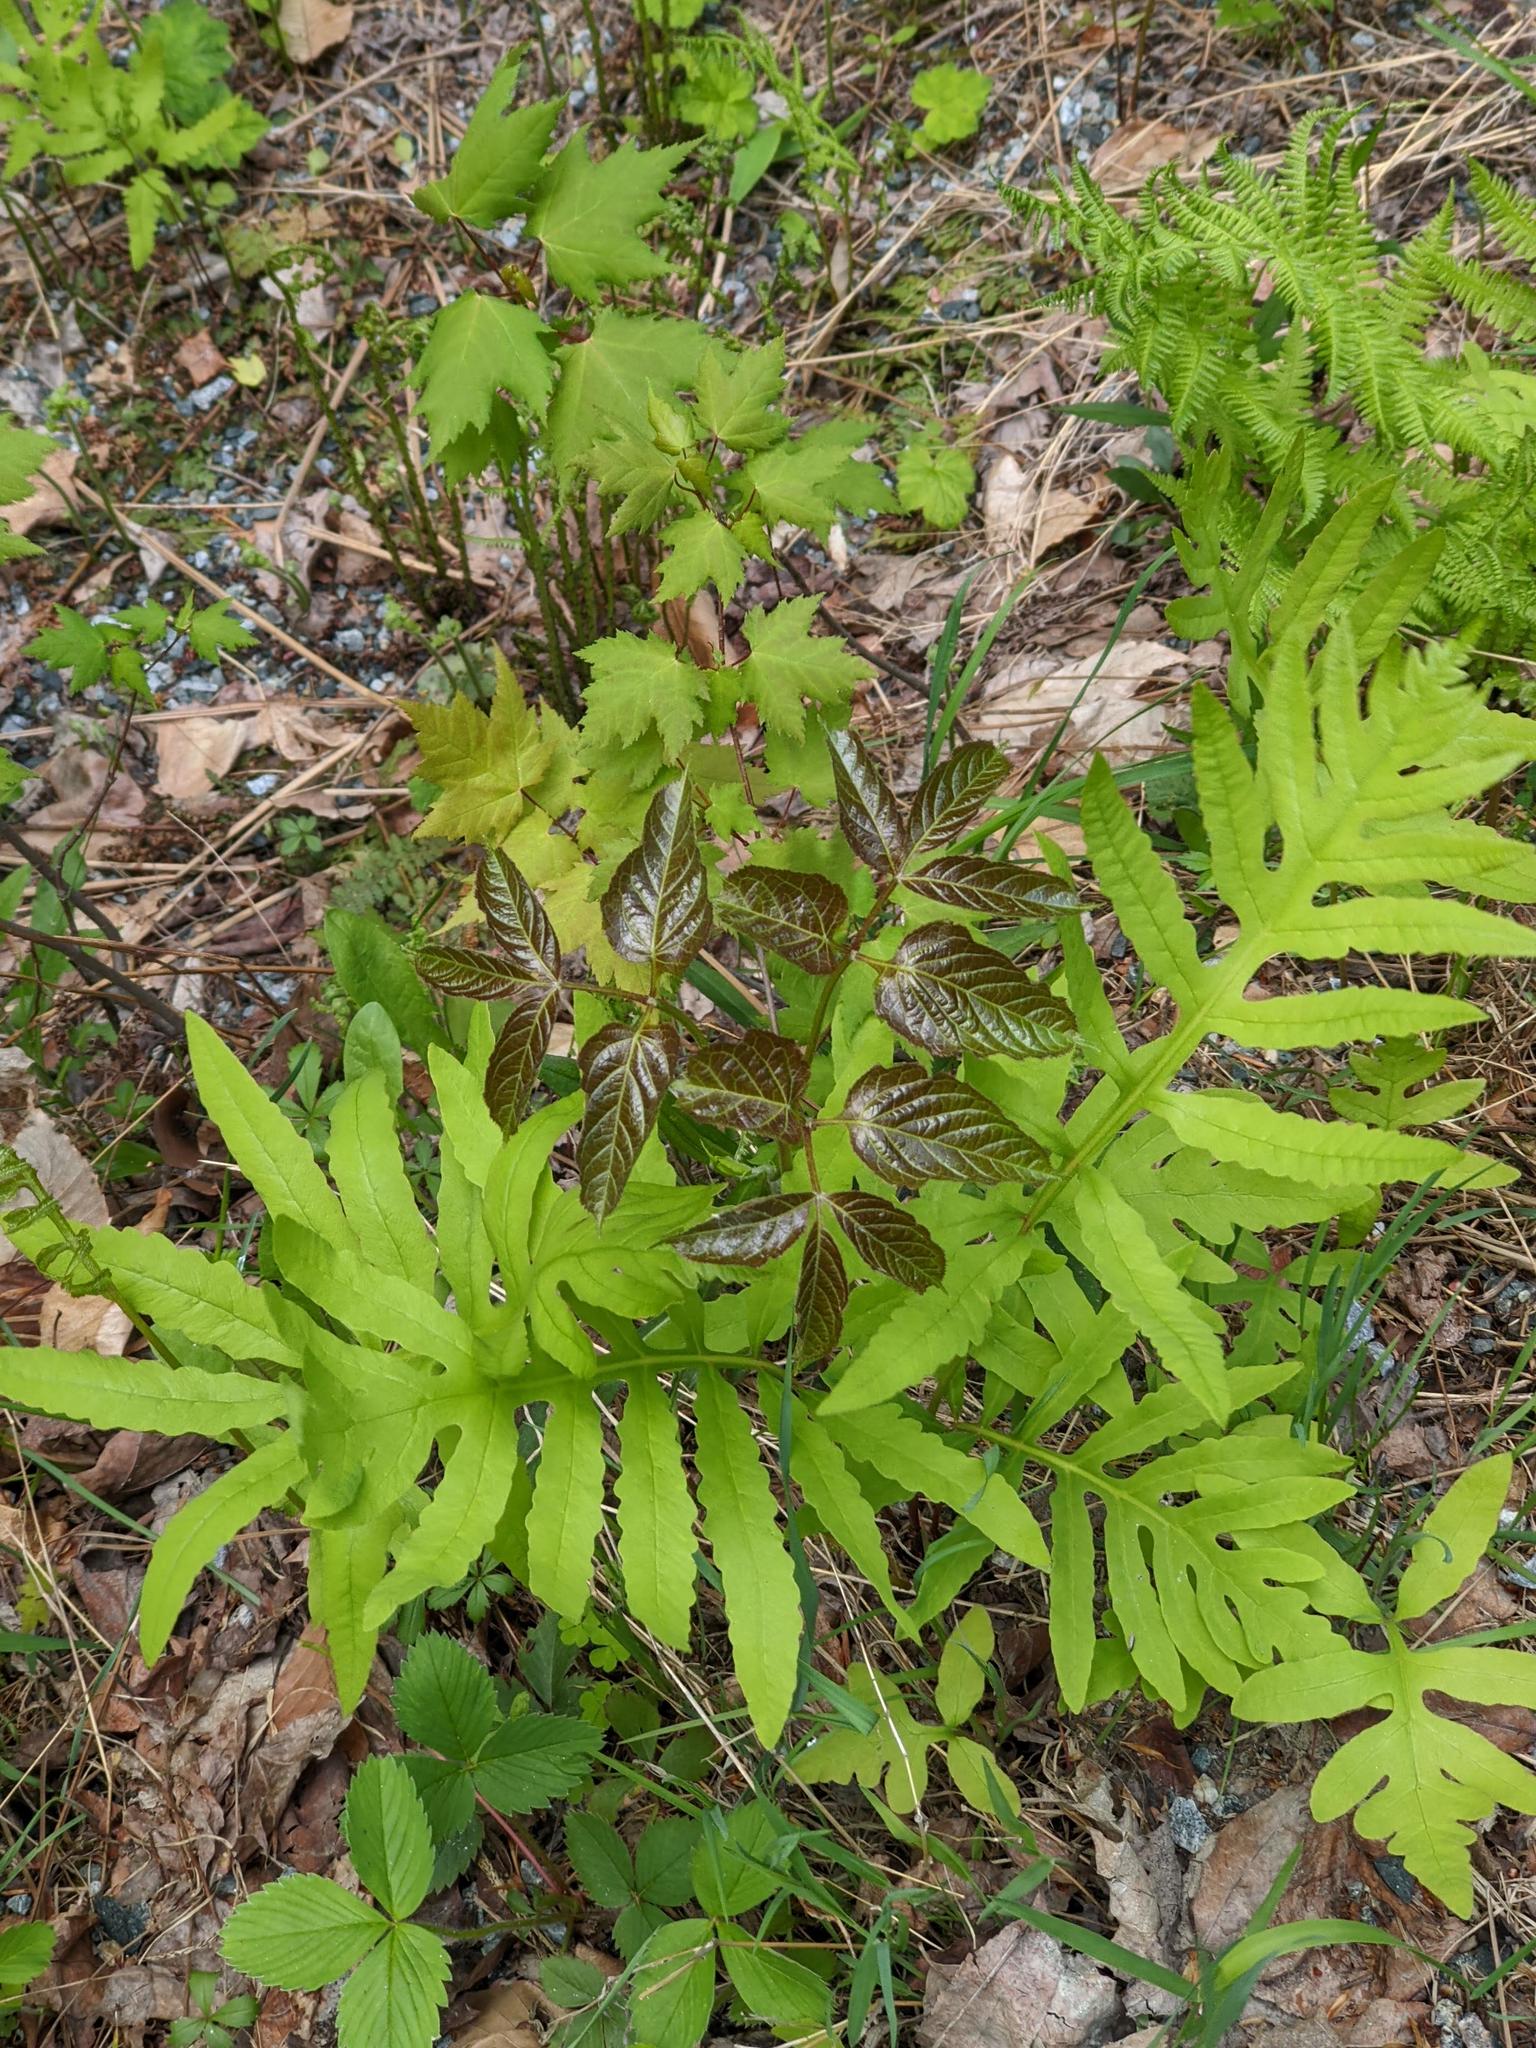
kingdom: Plantae
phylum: Tracheophyta
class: Polypodiopsida
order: Polypodiales
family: Onocleaceae
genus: Onoclea
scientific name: Onoclea sensibilis
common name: Sensitive fern
